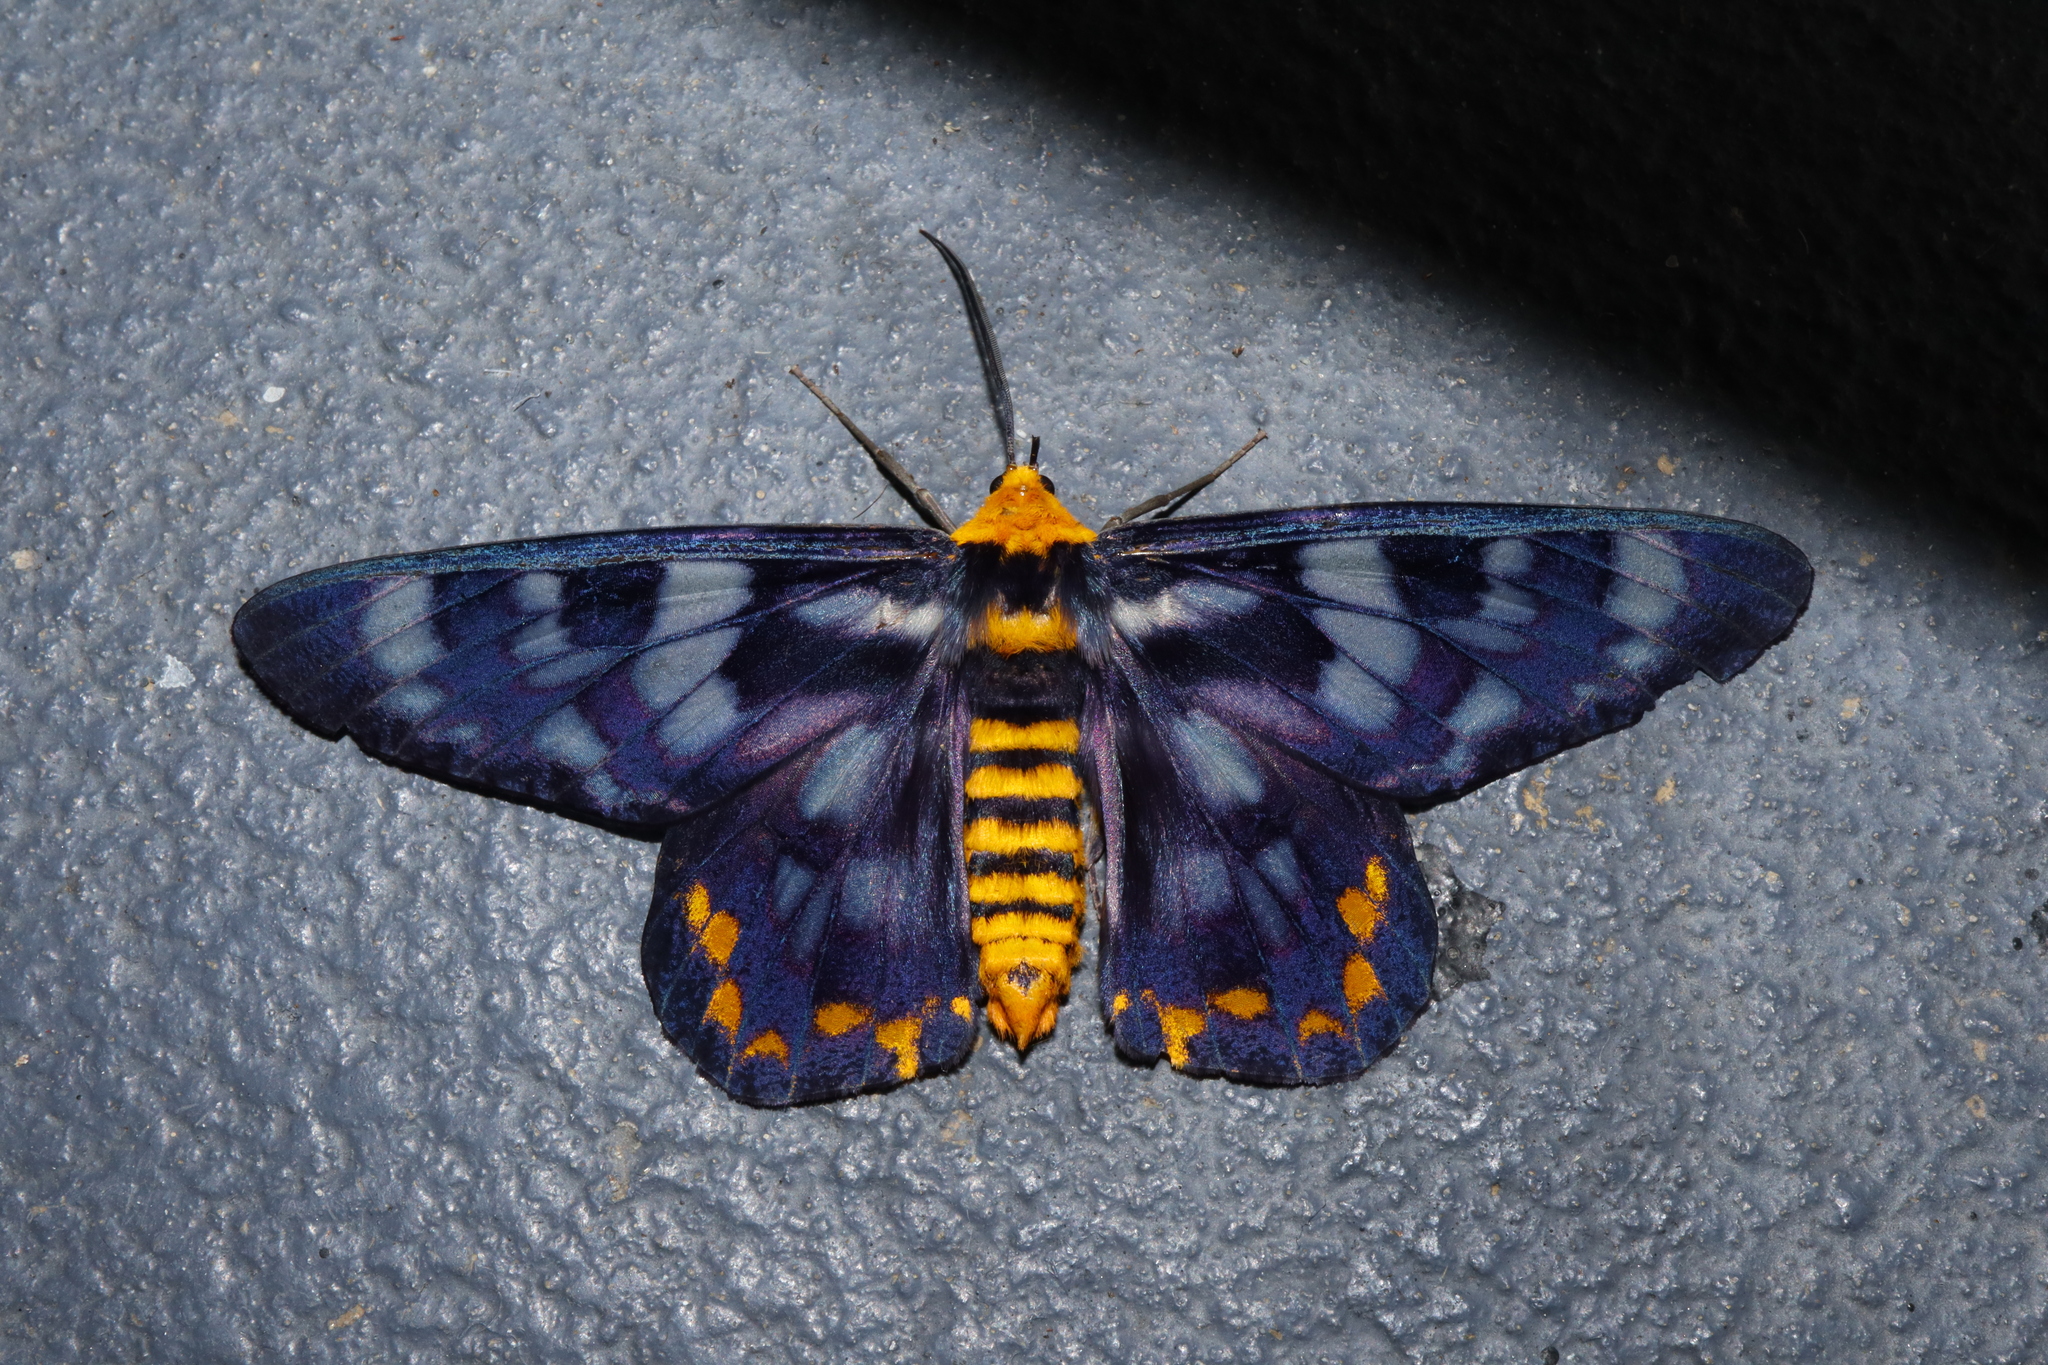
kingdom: Animalia
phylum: Arthropoda
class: Insecta
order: Lepidoptera
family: Geometridae
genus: Dysphania
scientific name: Dysphania numana
